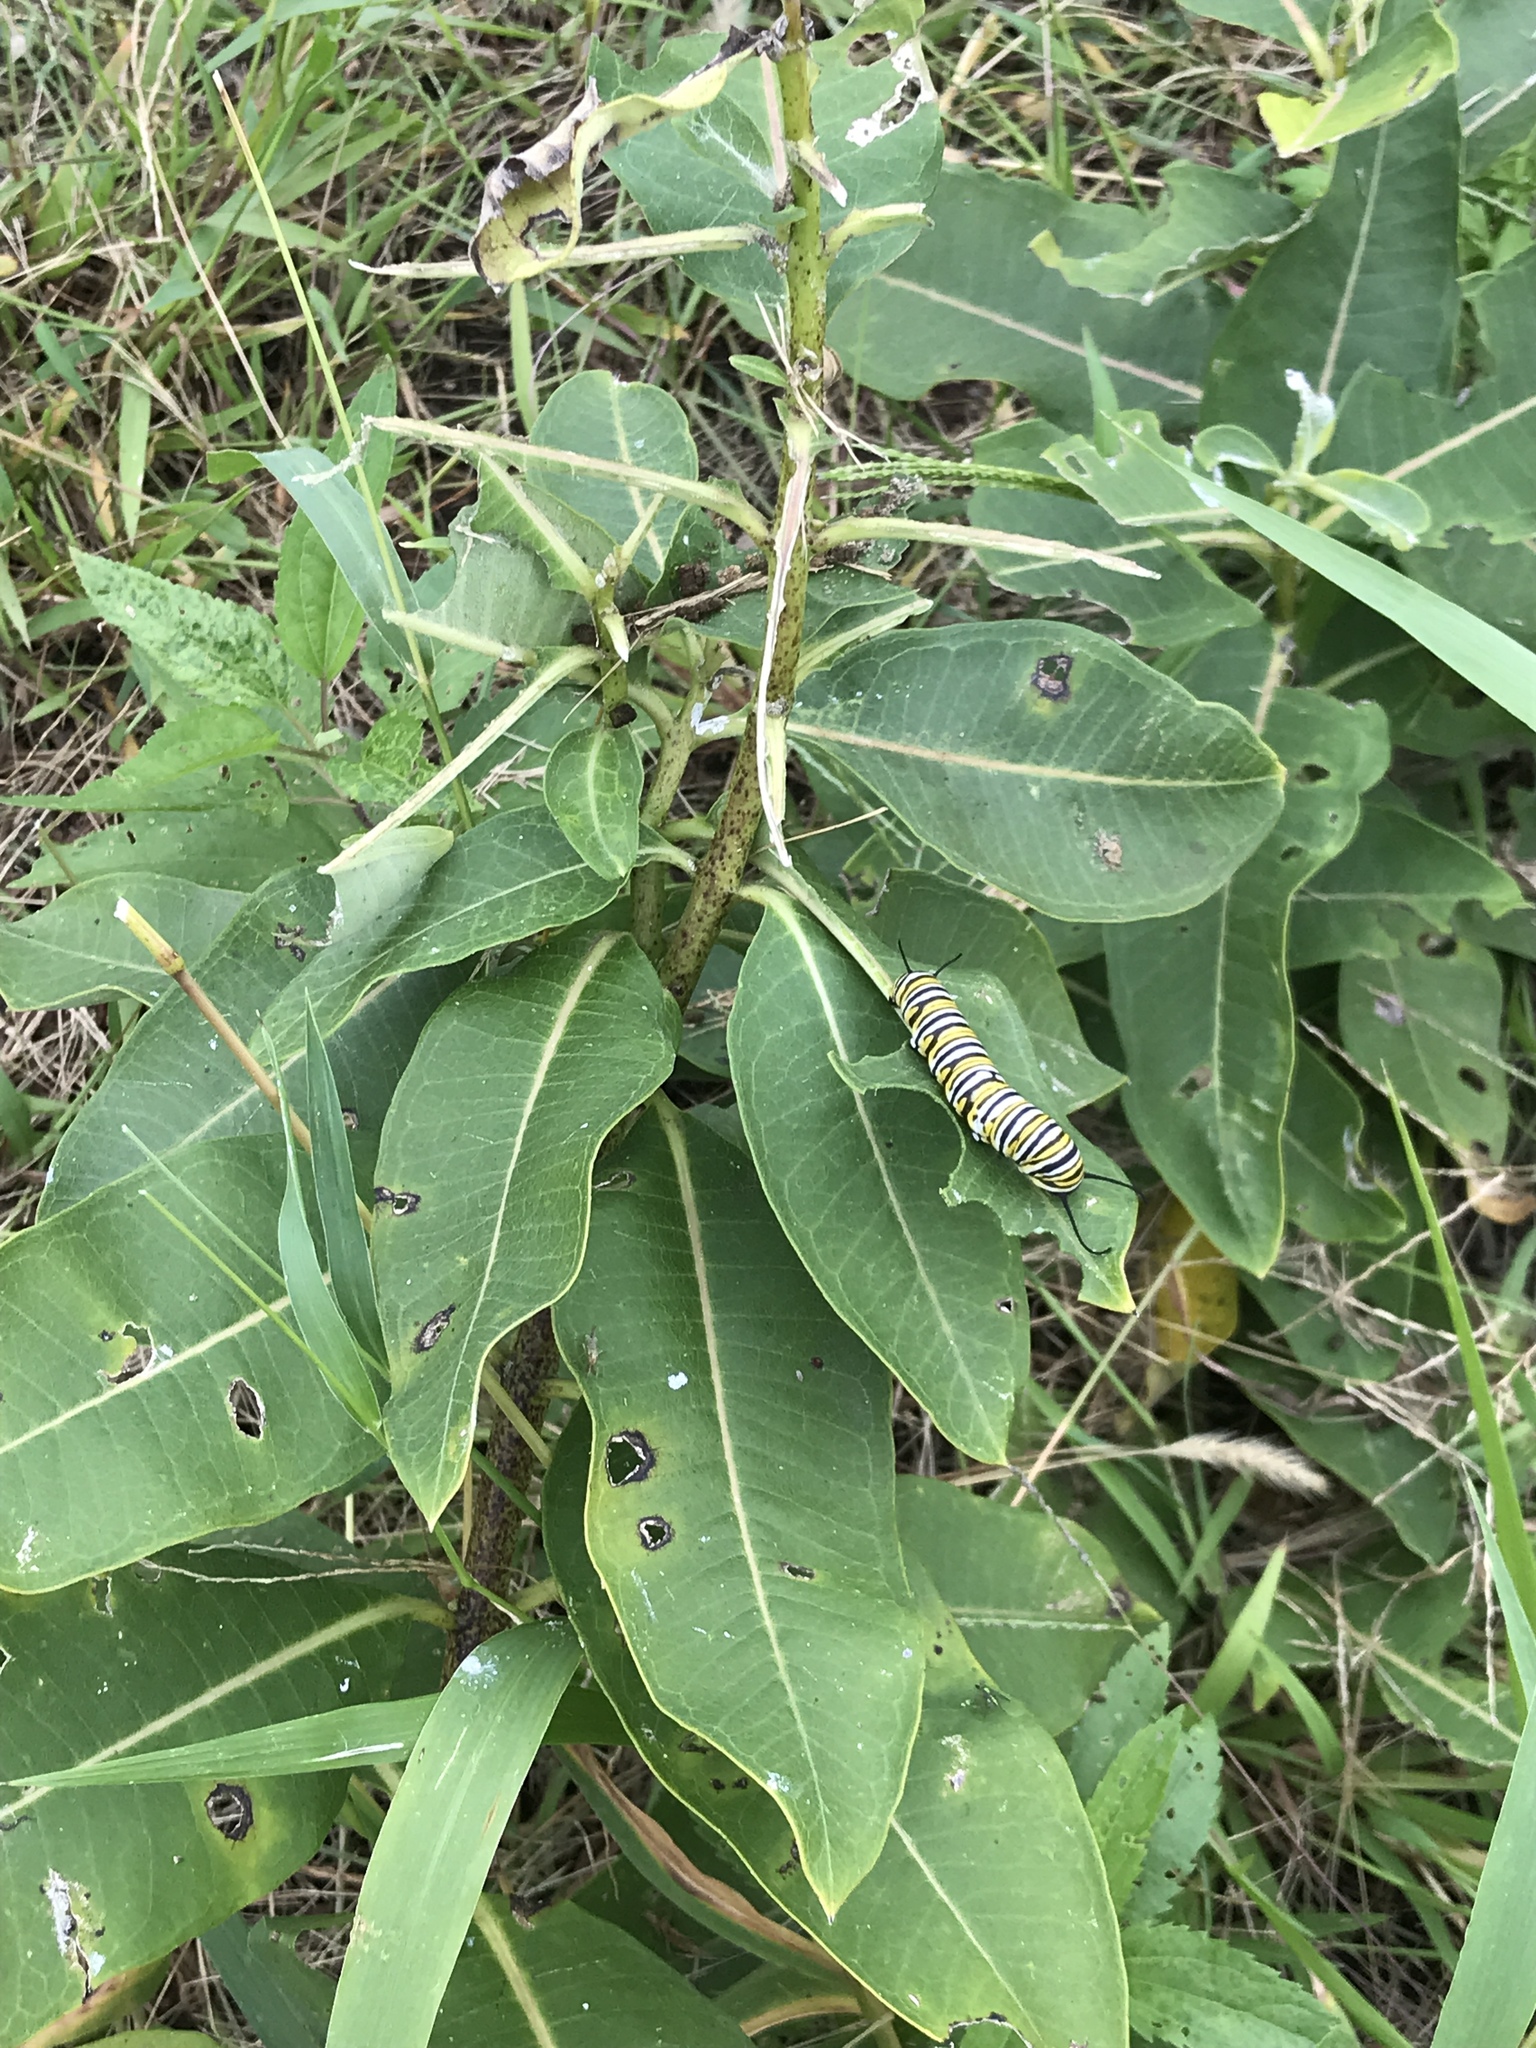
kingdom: Plantae
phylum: Tracheophyta
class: Magnoliopsida
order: Gentianales
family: Apocynaceae
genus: Asclepias
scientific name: Asclepias syriaca
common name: Common milkweed
